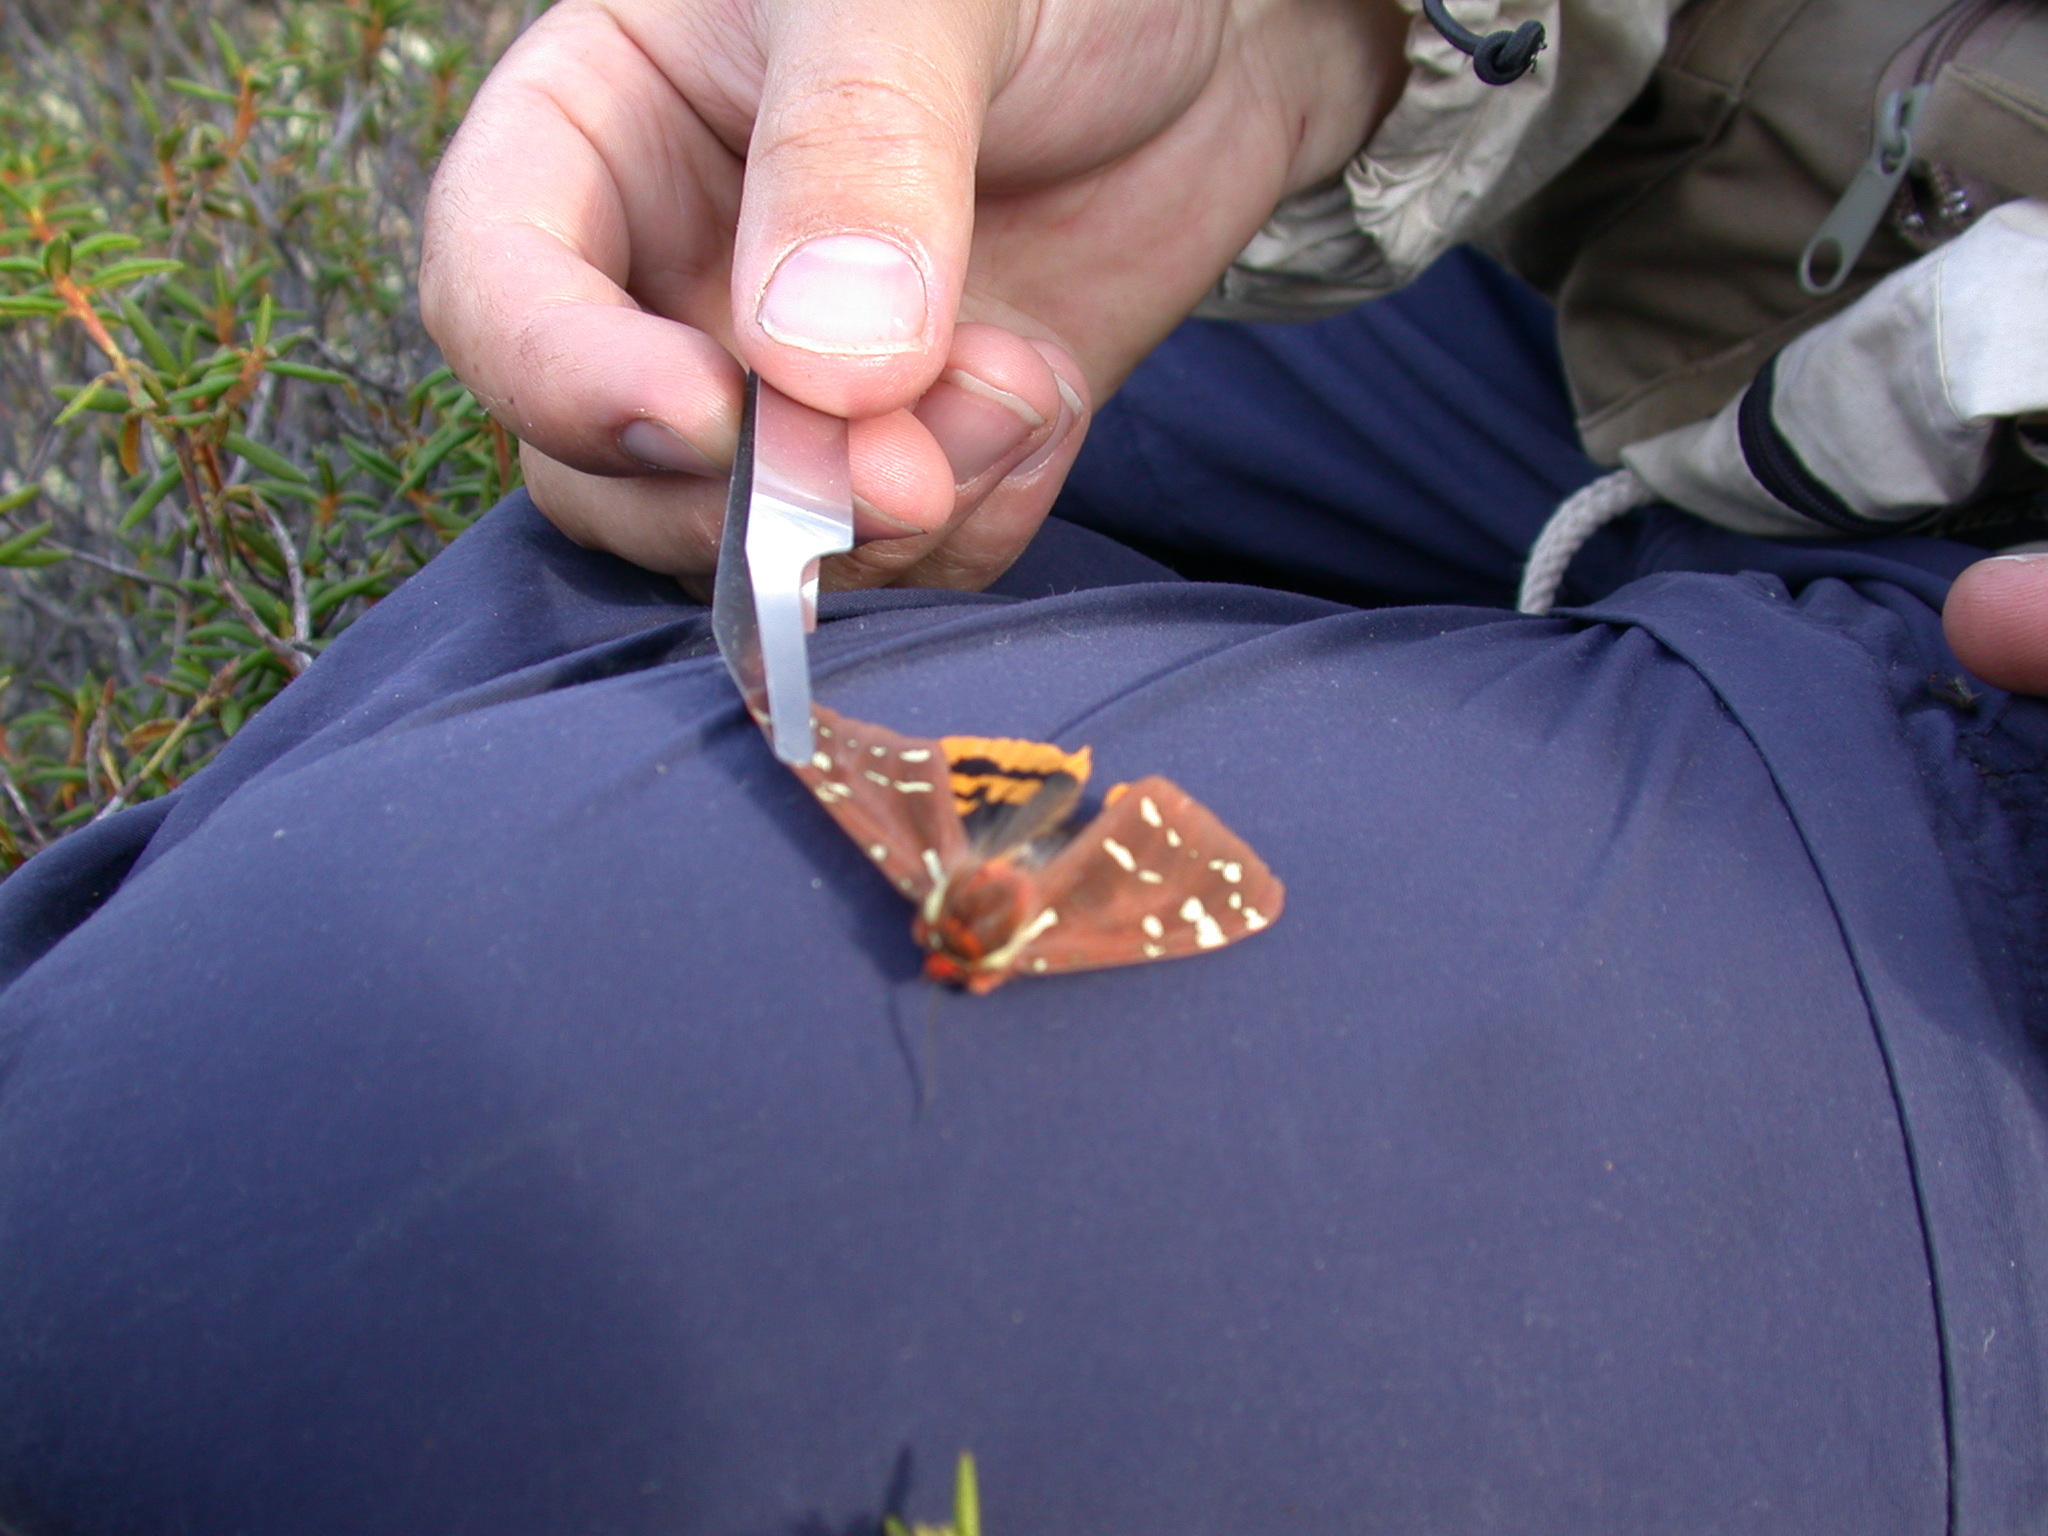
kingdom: Animalia
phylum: Arthropoda
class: Insecta
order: Lepidoptera
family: Erebidae
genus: Arctia
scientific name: Arctia parthenos
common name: St. lawrence tiger moth
